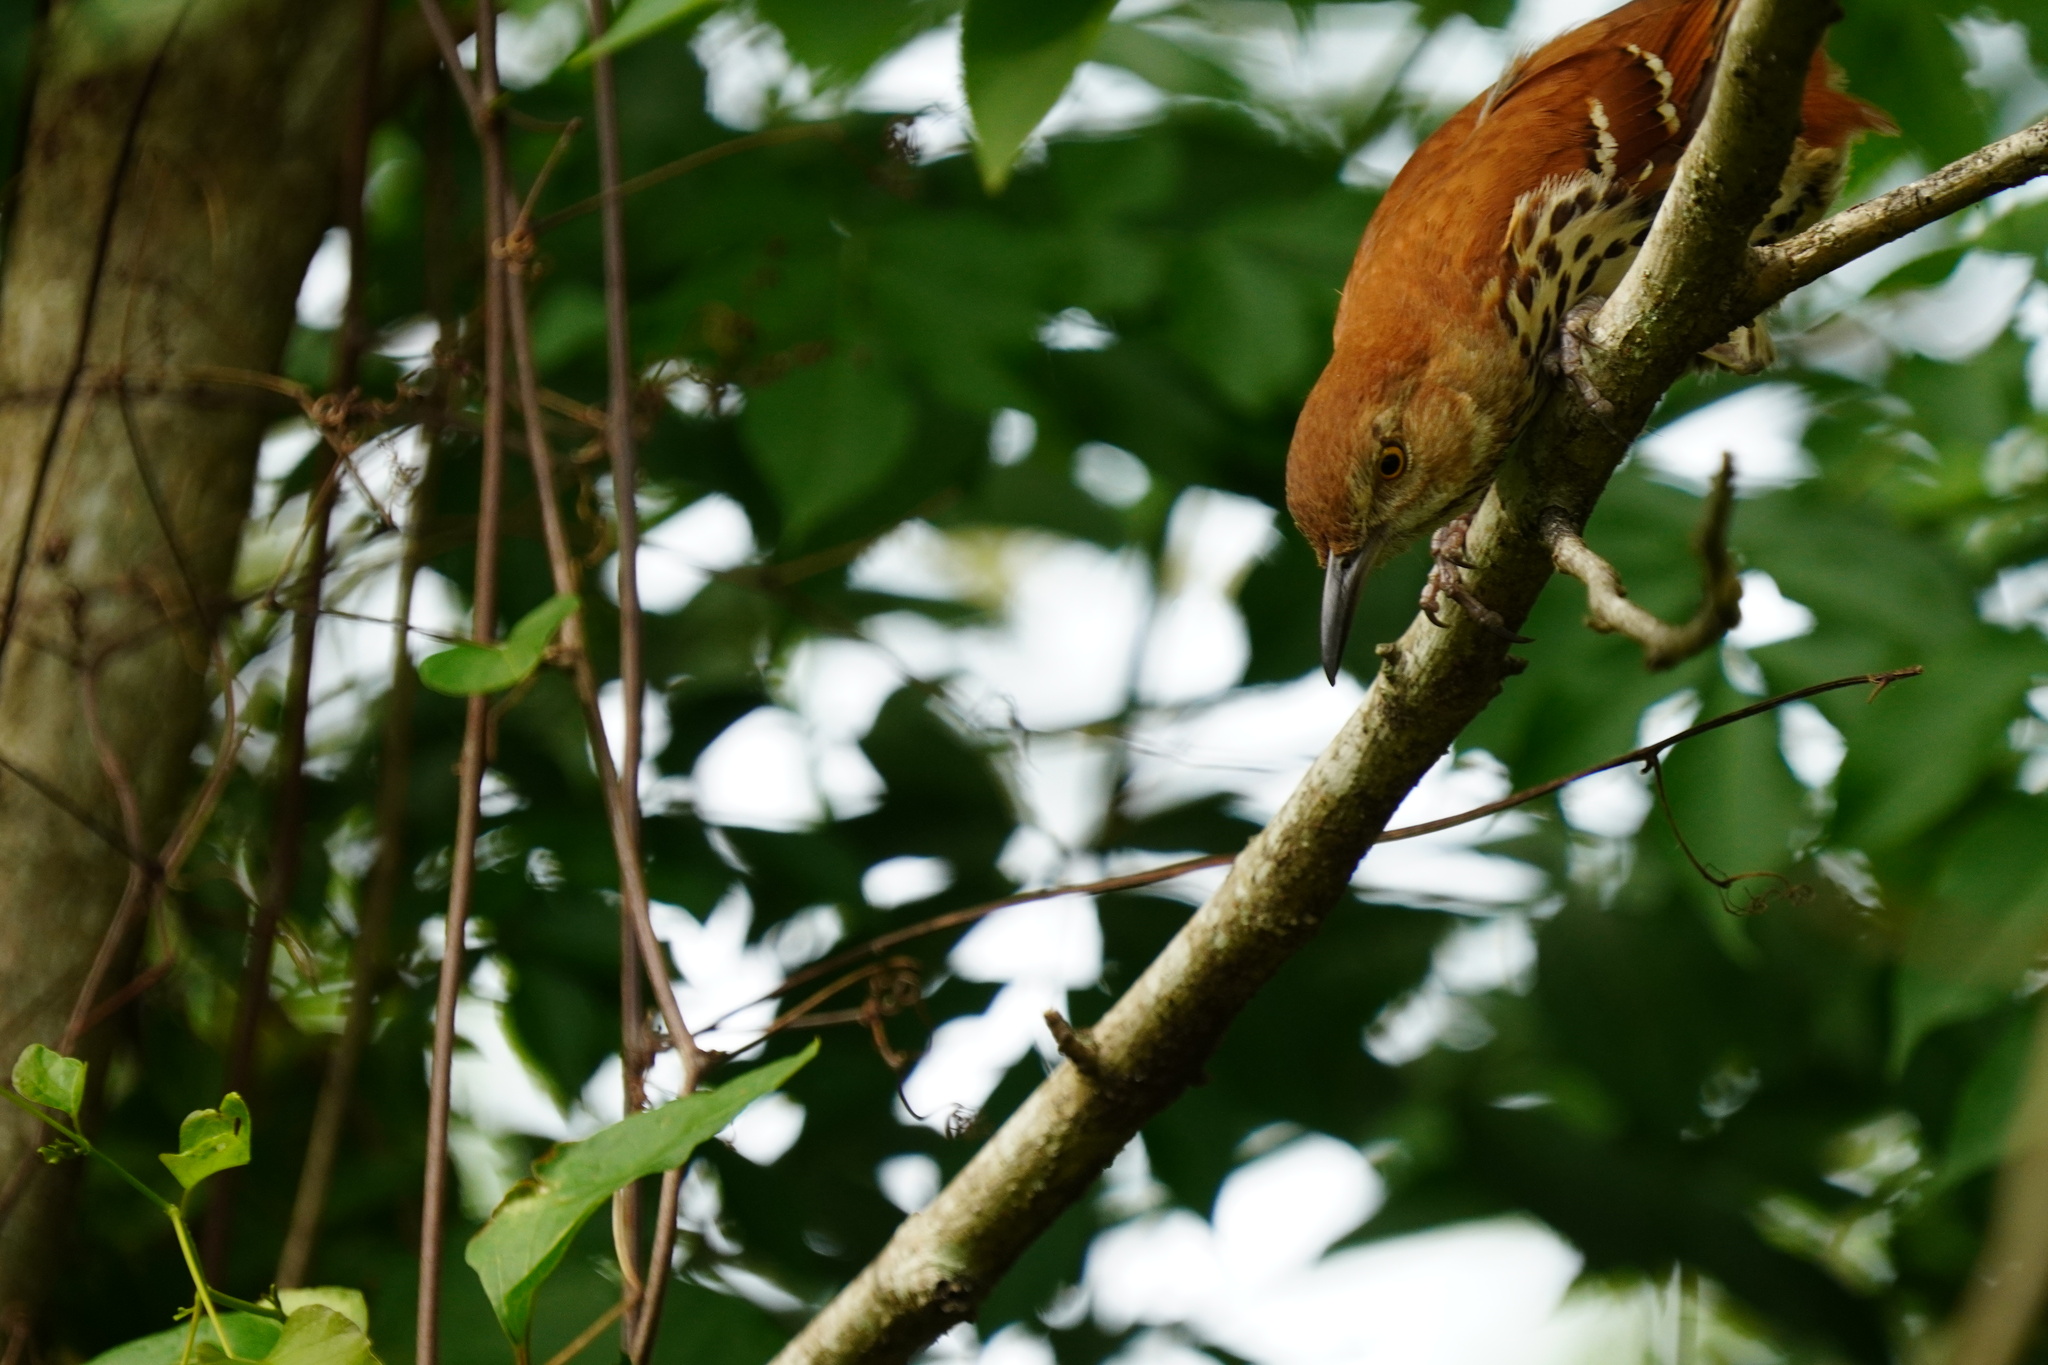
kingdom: Animalia
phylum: Chordata
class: Aves
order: Passeriformes
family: Mimidae
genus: Toxostoma
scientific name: Toxostoma rufum
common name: Brown thrasher
